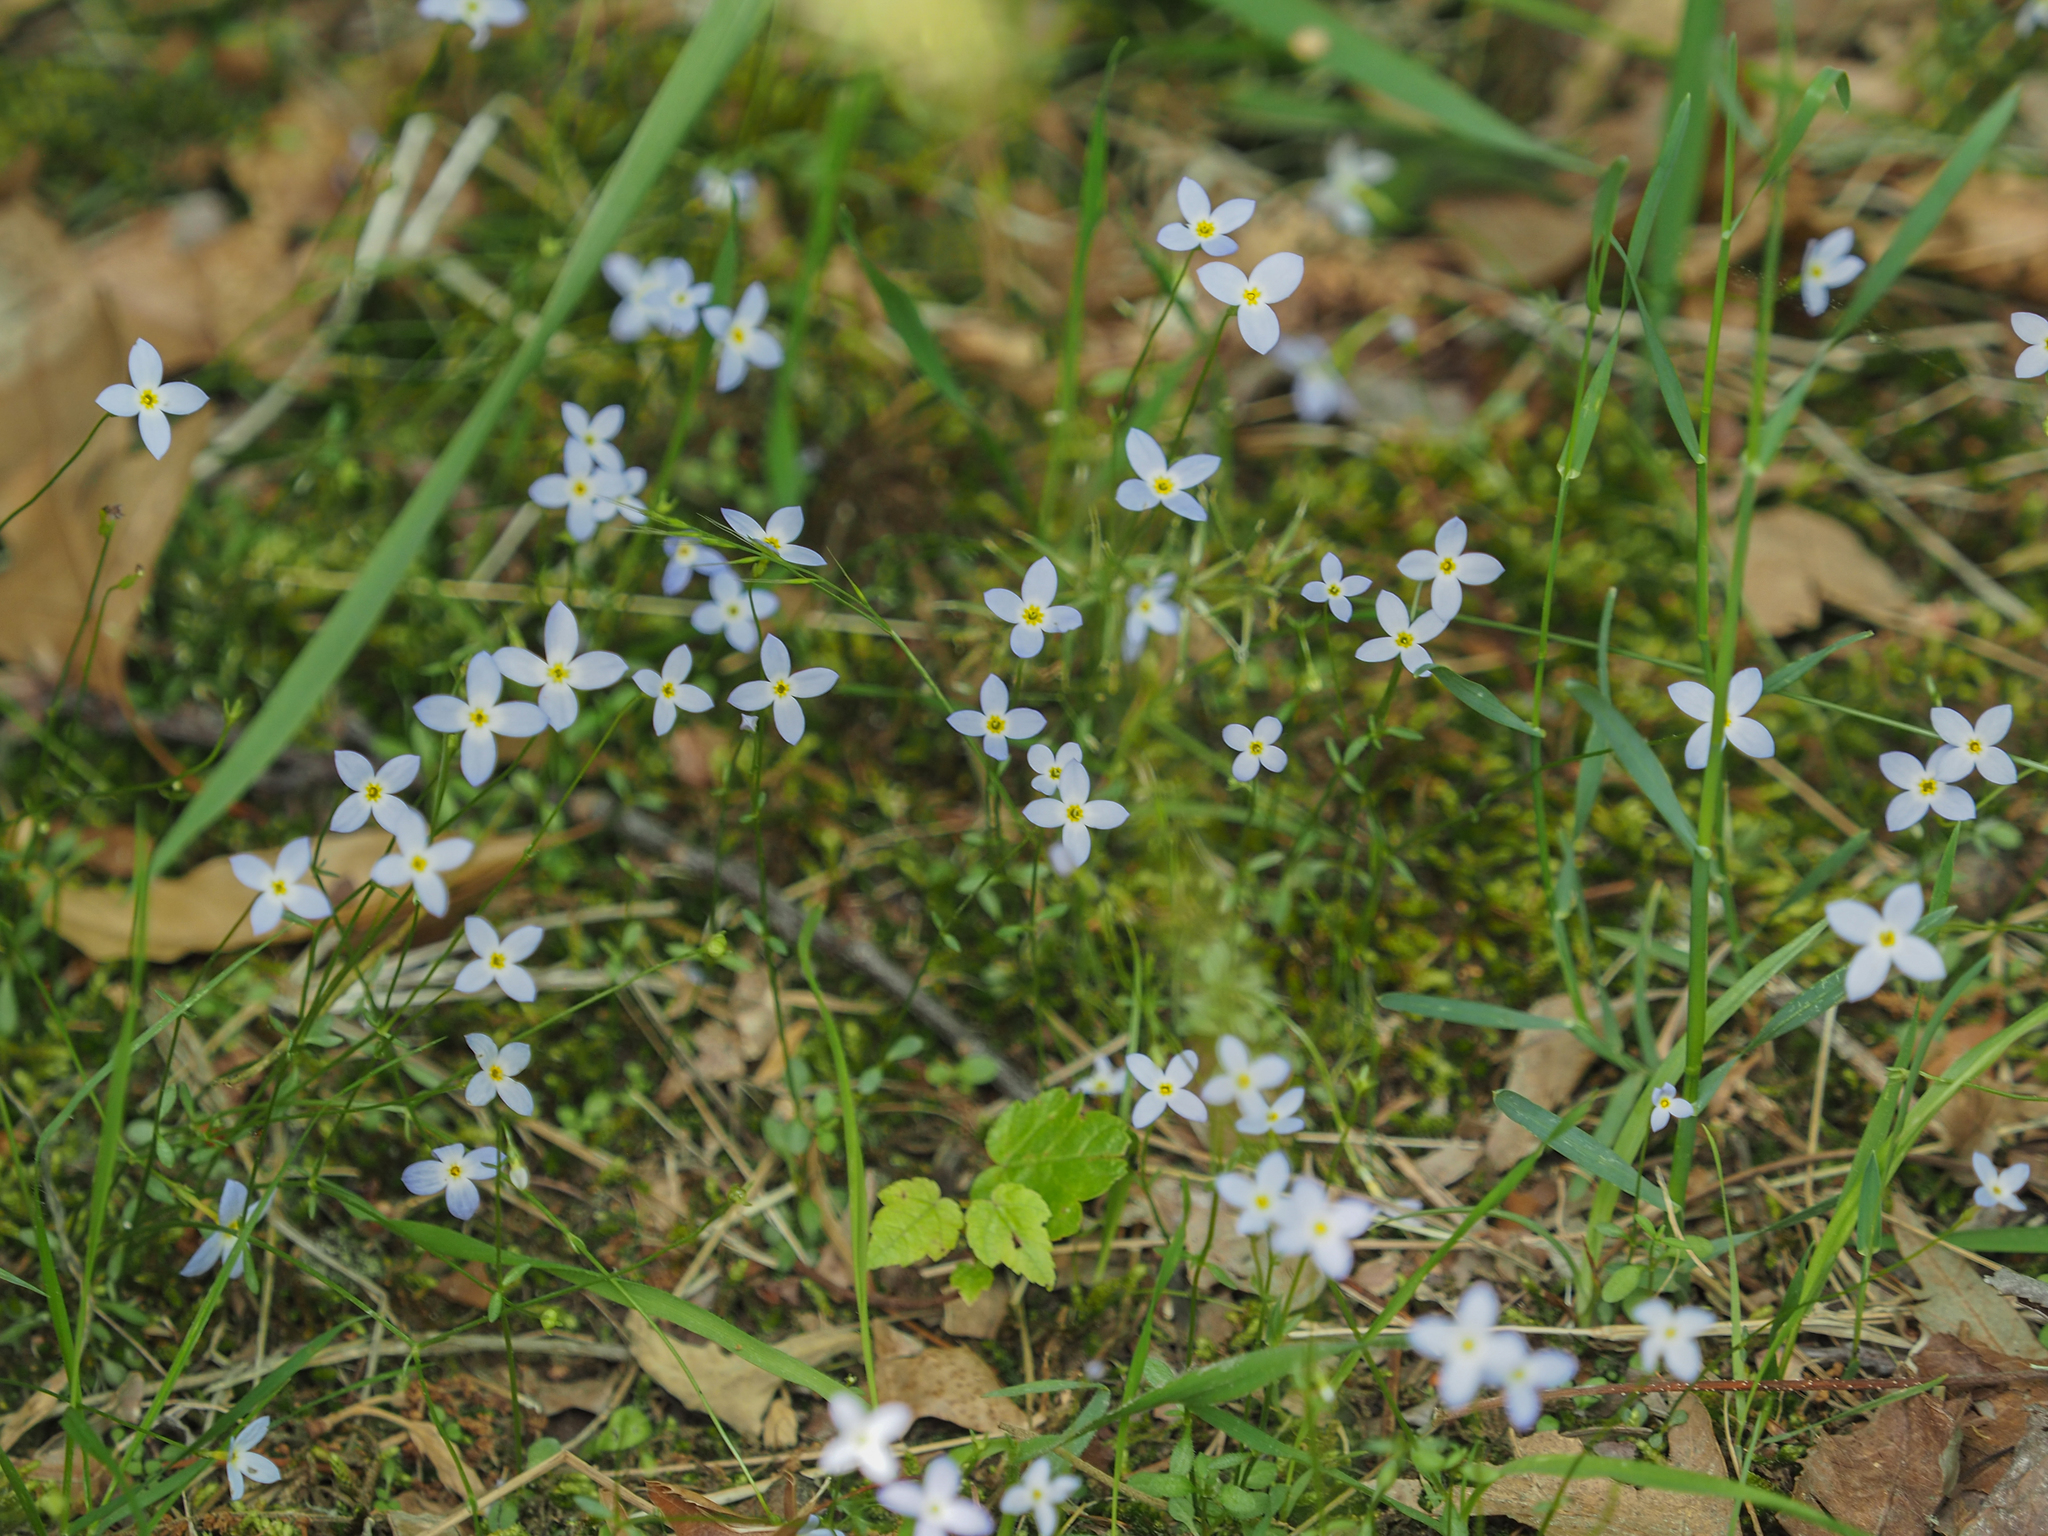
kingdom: Plantae
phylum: Tracheophyta
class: Magnoliopsida
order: Gentianales
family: Rubiaceae
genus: Houstonia
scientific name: Houstonia caerulea
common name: Bluets
